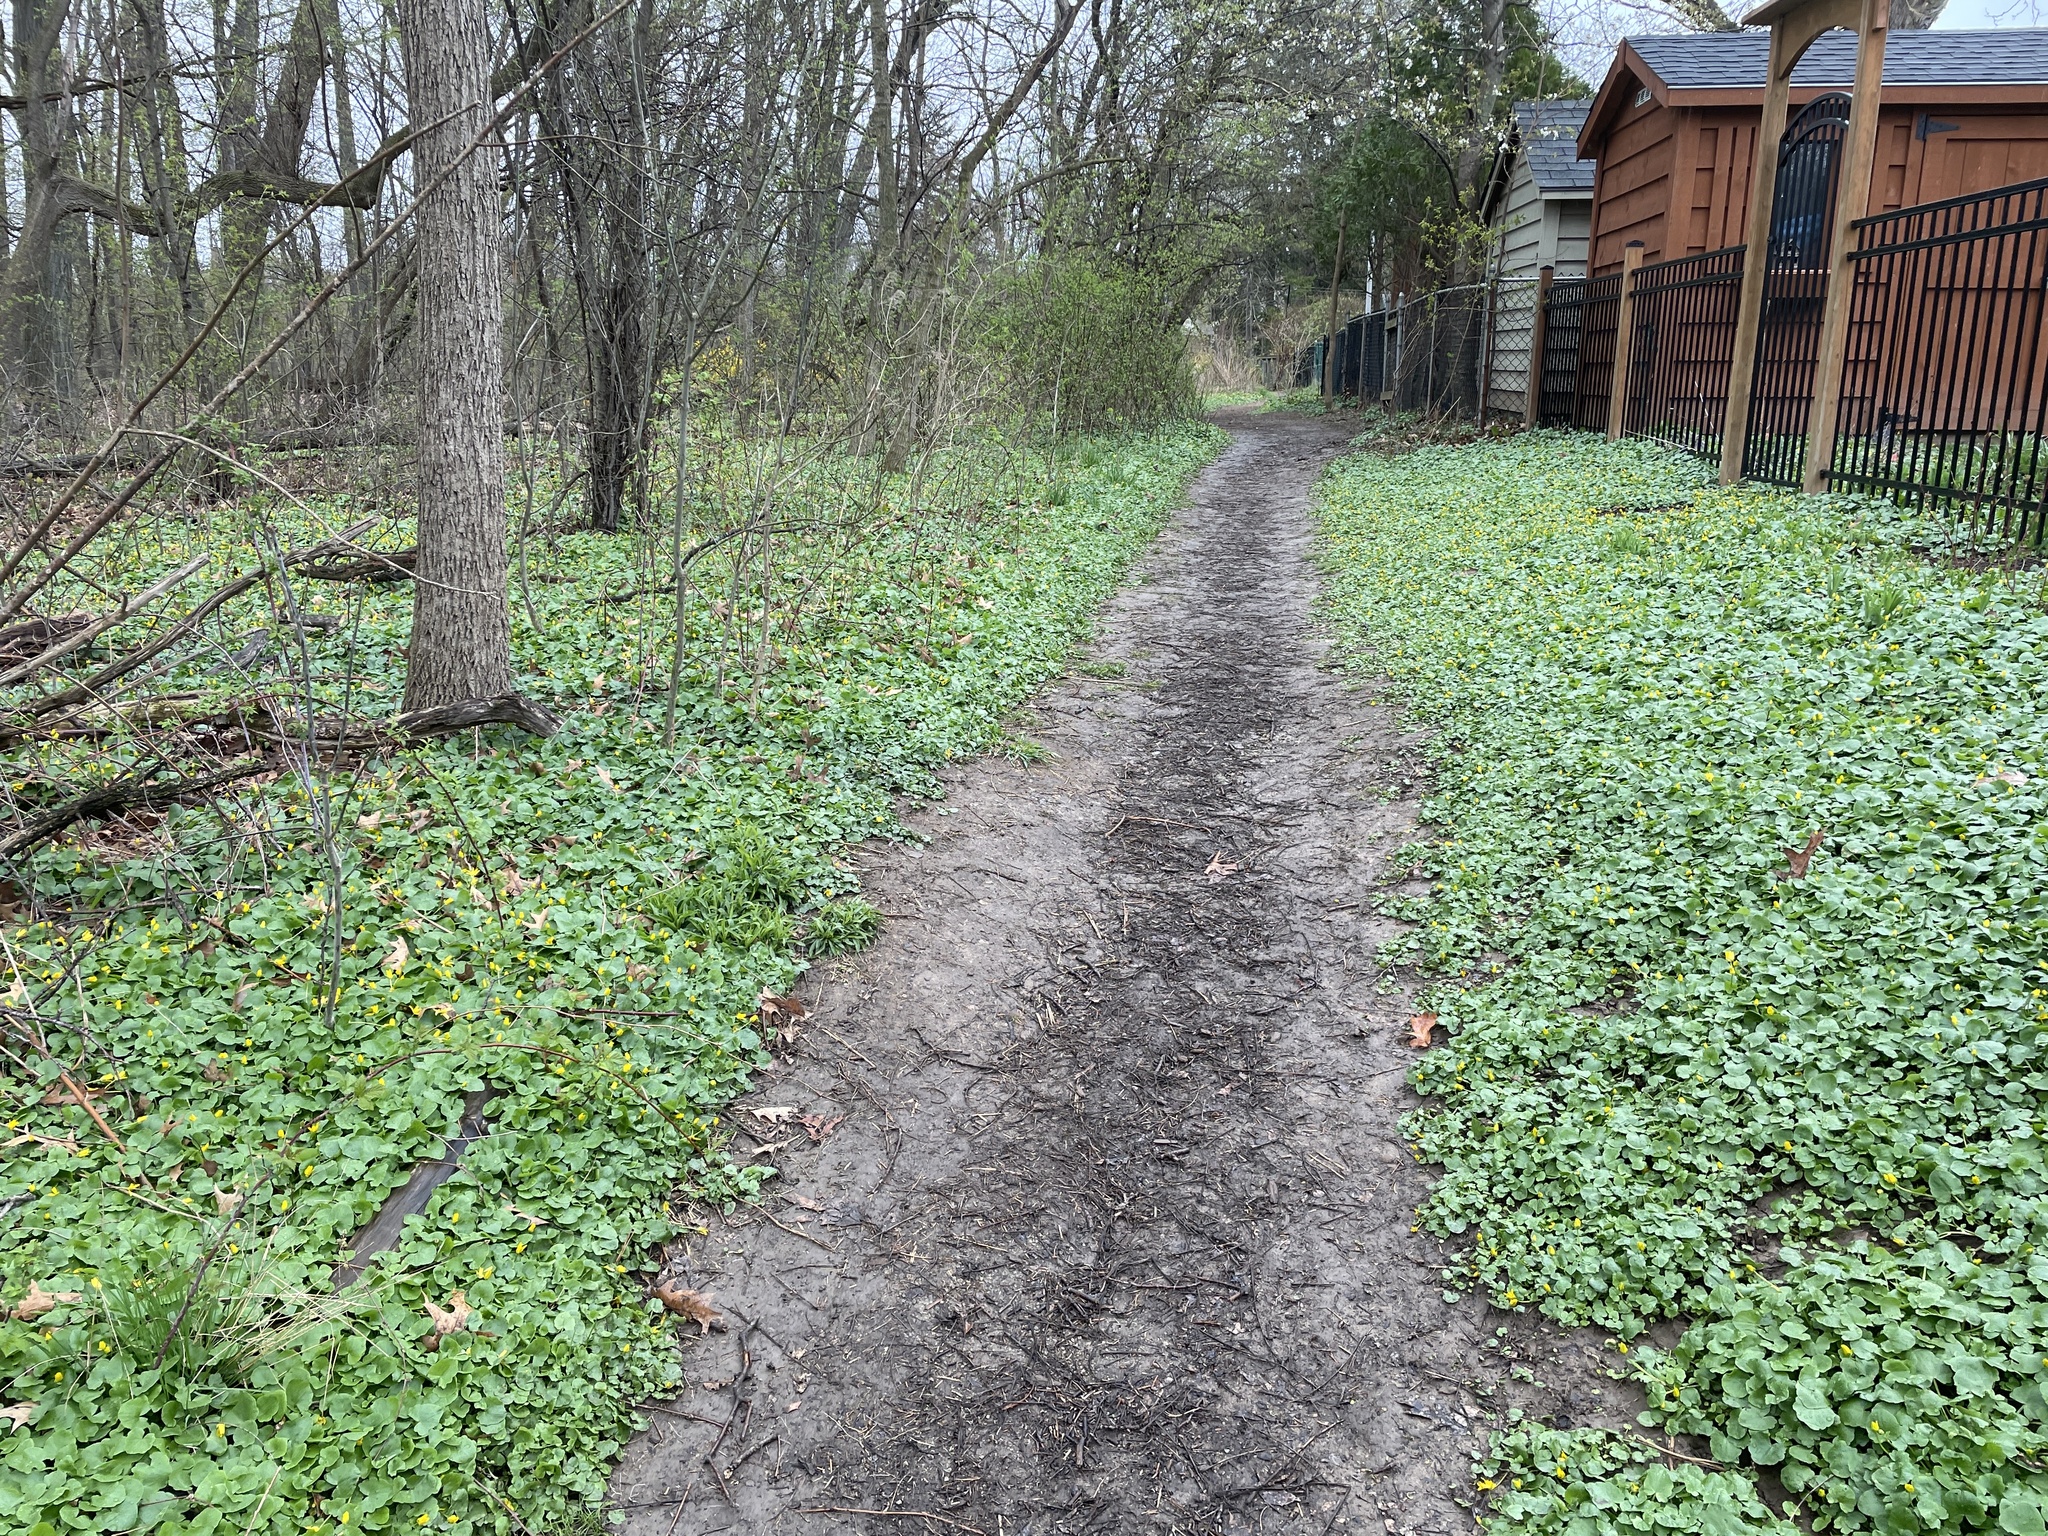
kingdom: Plantae
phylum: Tracheophyta
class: Magnoliopsida
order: Ranunculales
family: Ranunculaceae
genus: Ficaria
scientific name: Ficaria verna
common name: Lesser celandine
